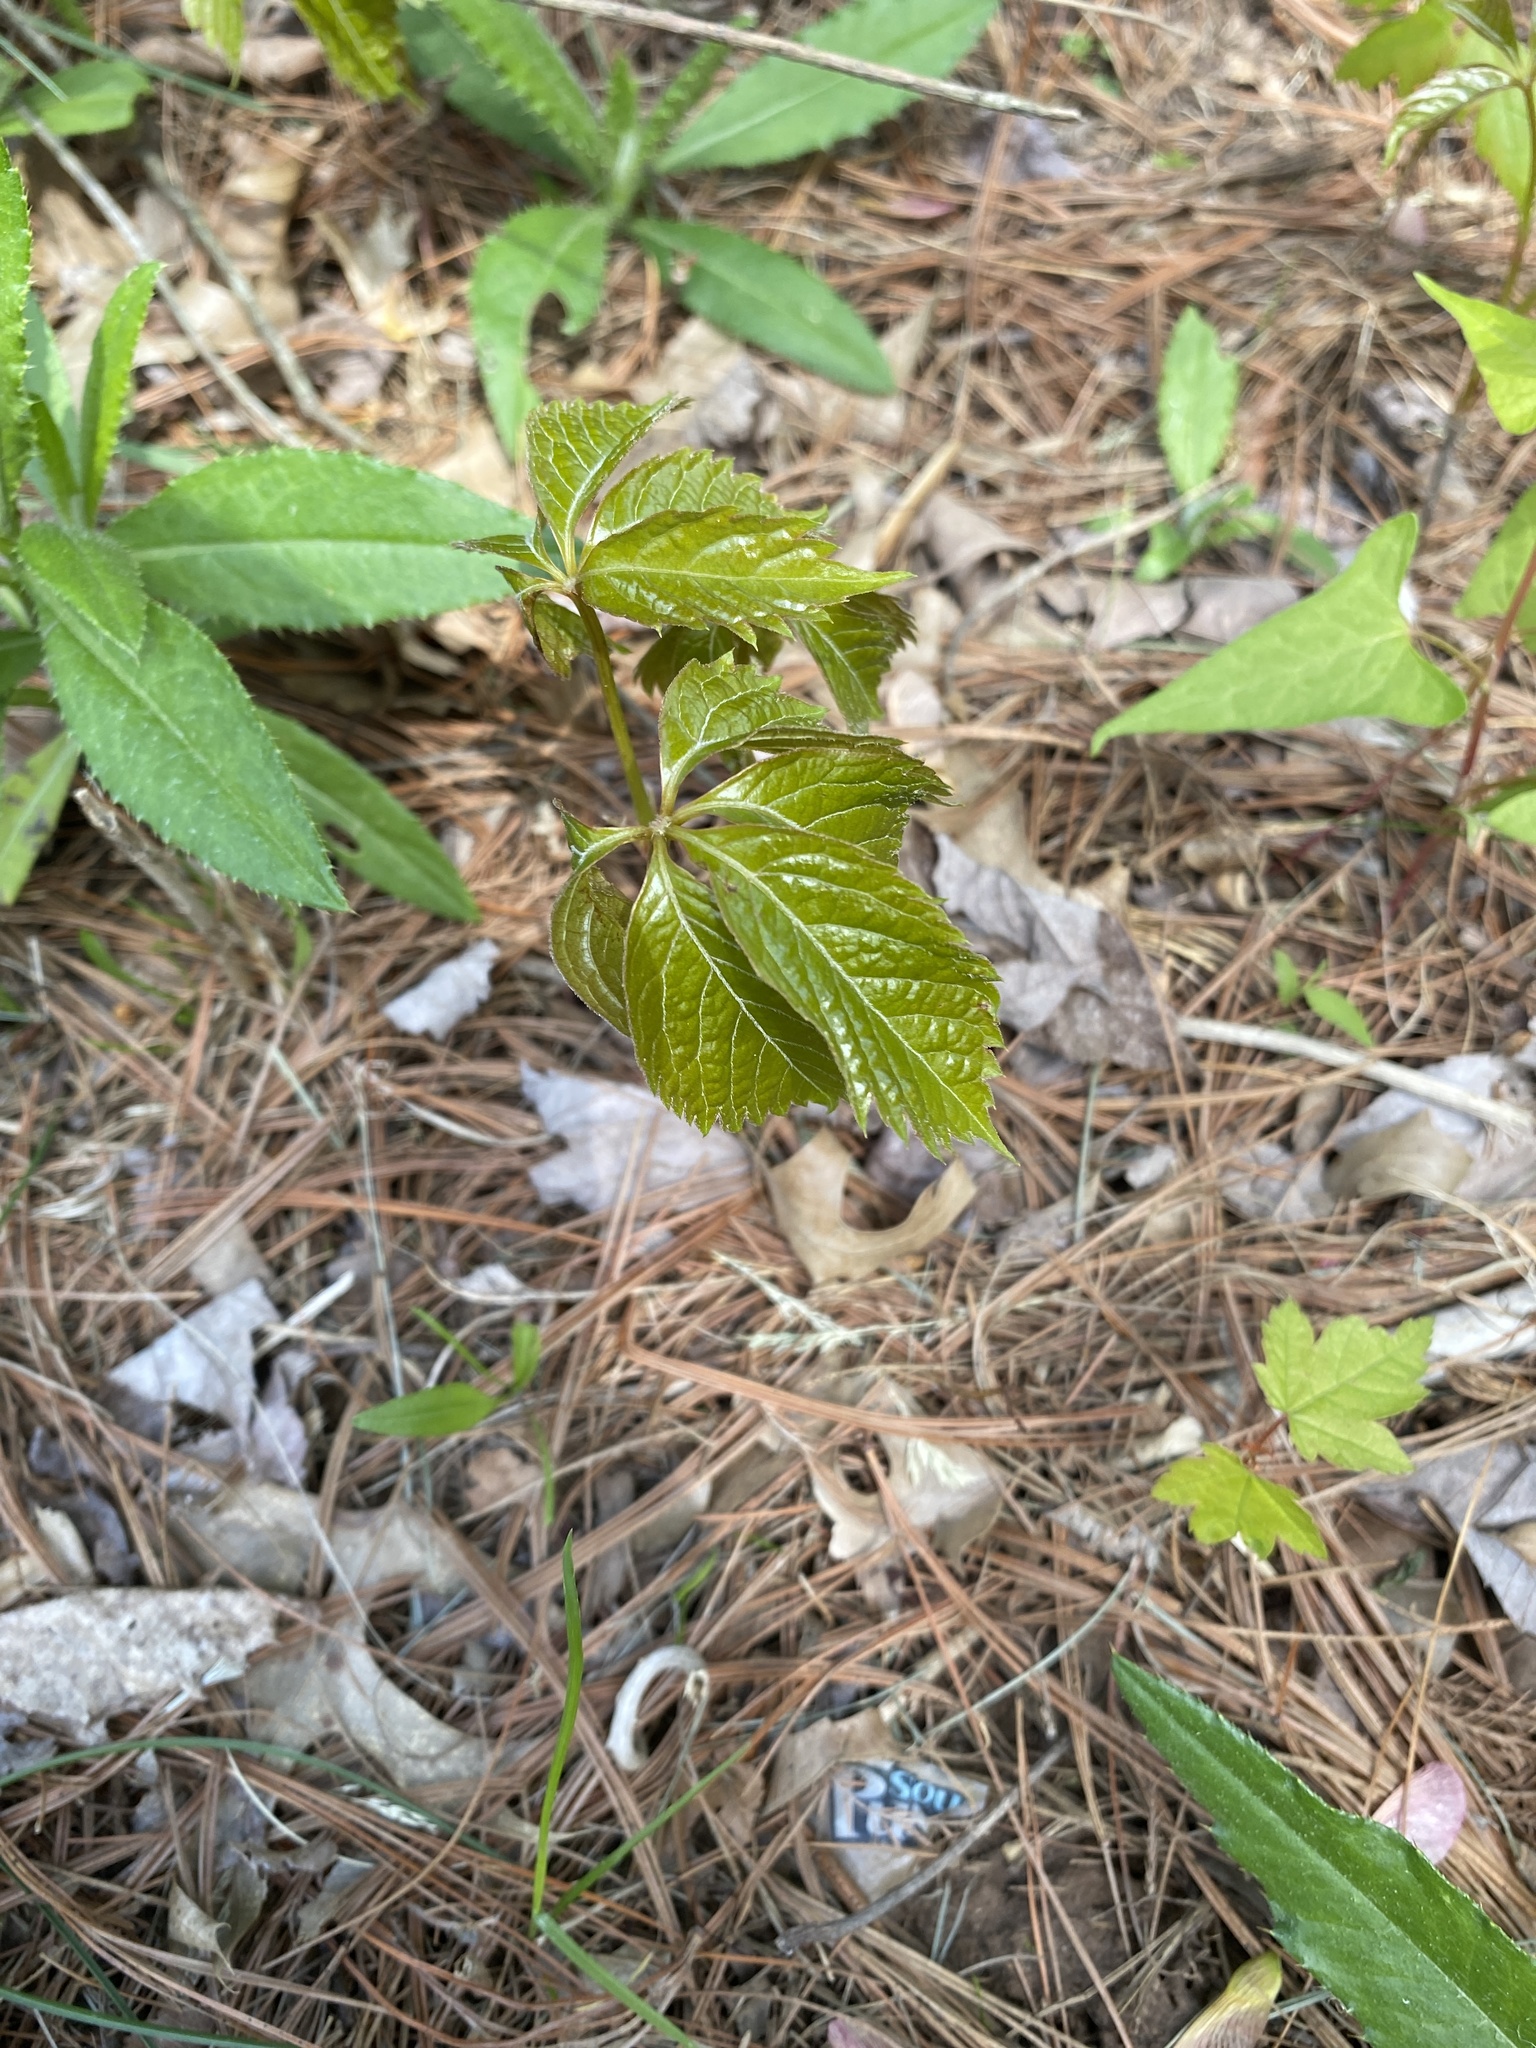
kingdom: Plantae
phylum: Tracheophyta
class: Magnoliopsida
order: Vitales
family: Vitaceae
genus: Parthenocissus
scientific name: Parthenocissus quinquefolia
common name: Virginia-creeper
